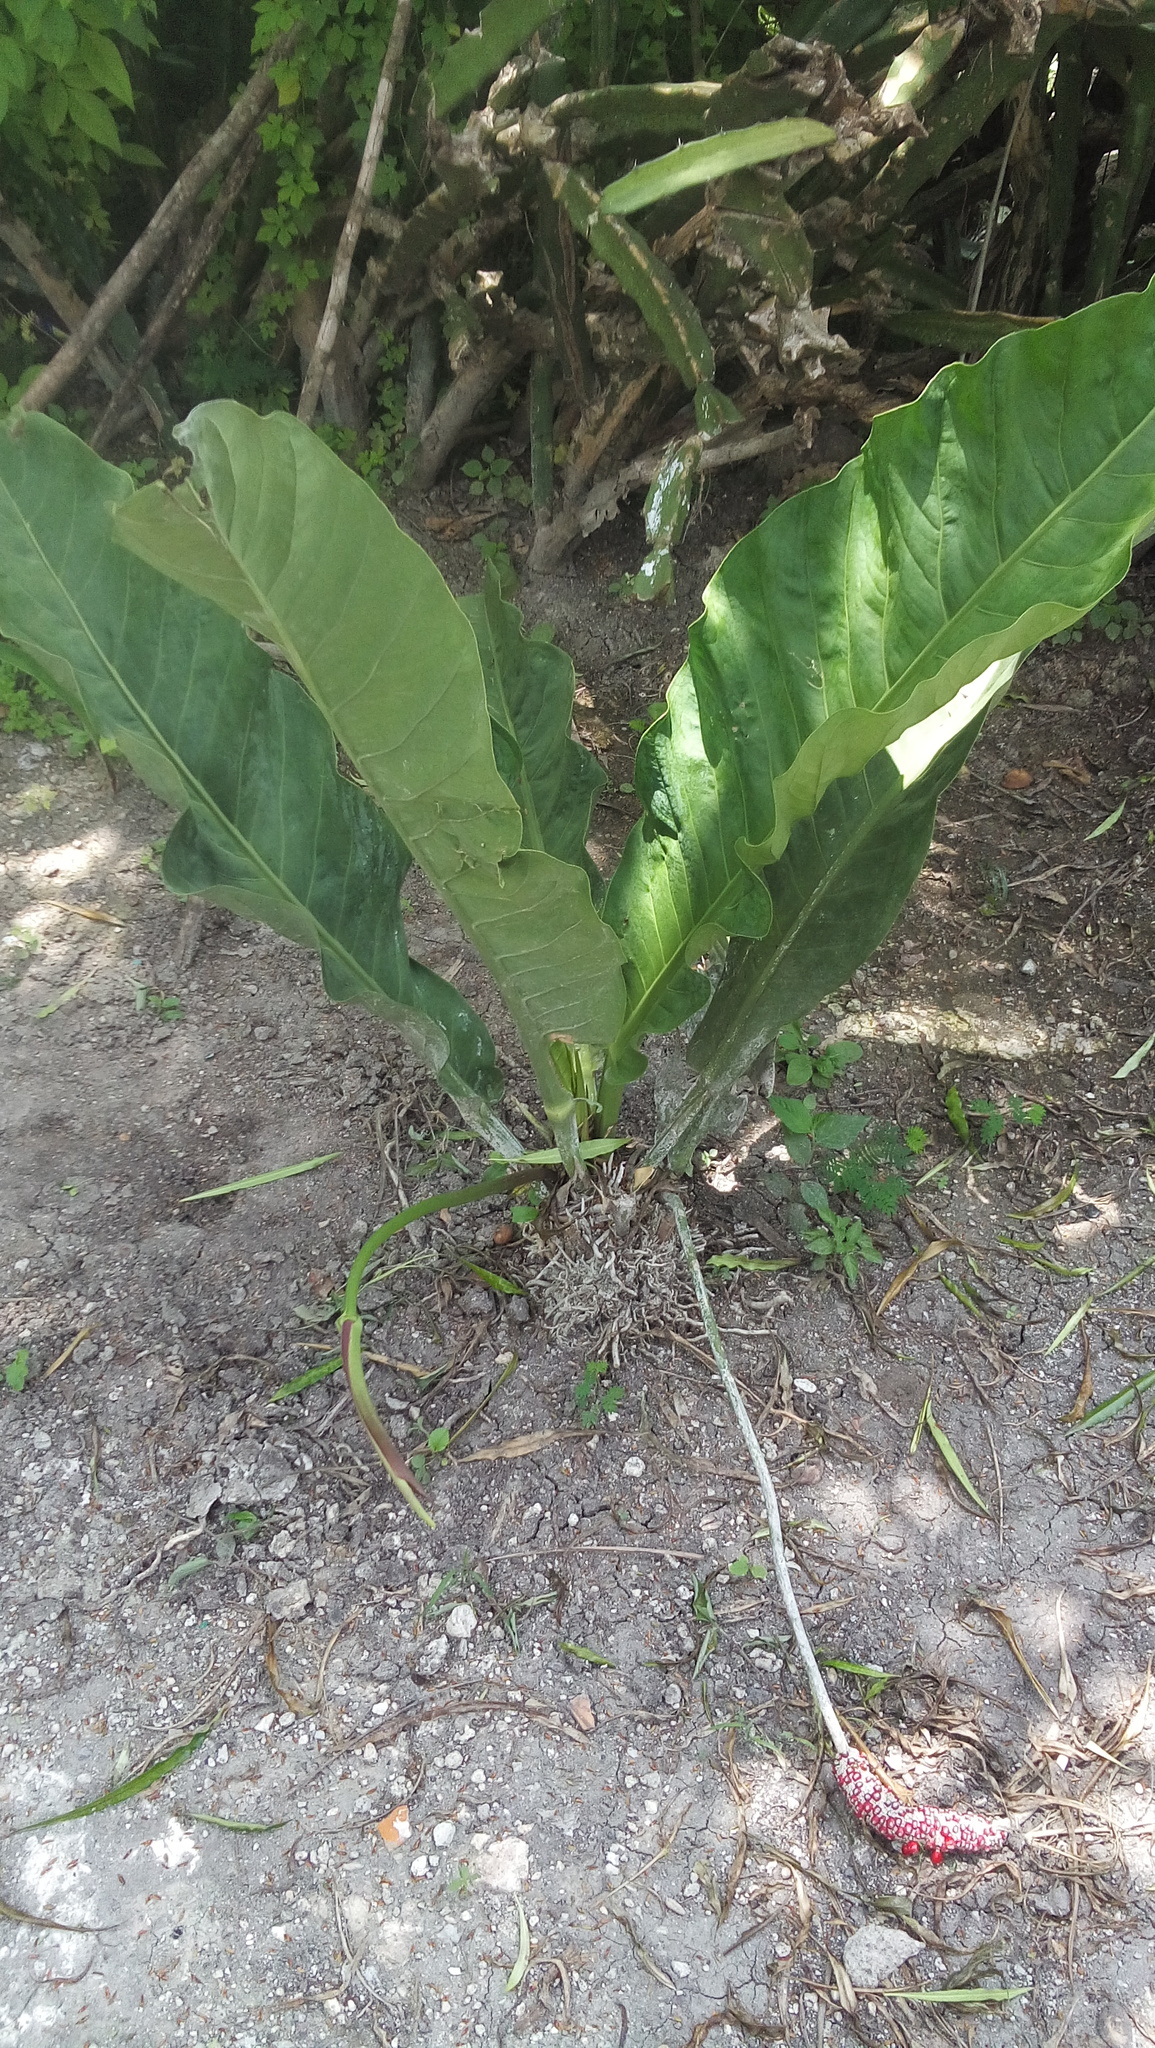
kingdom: Plantae
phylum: Tracheophyta
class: Liliopsida
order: Alismatales
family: Araceae
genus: Anthurium
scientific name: Anthurium schlechtendalii
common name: Laceleaf
